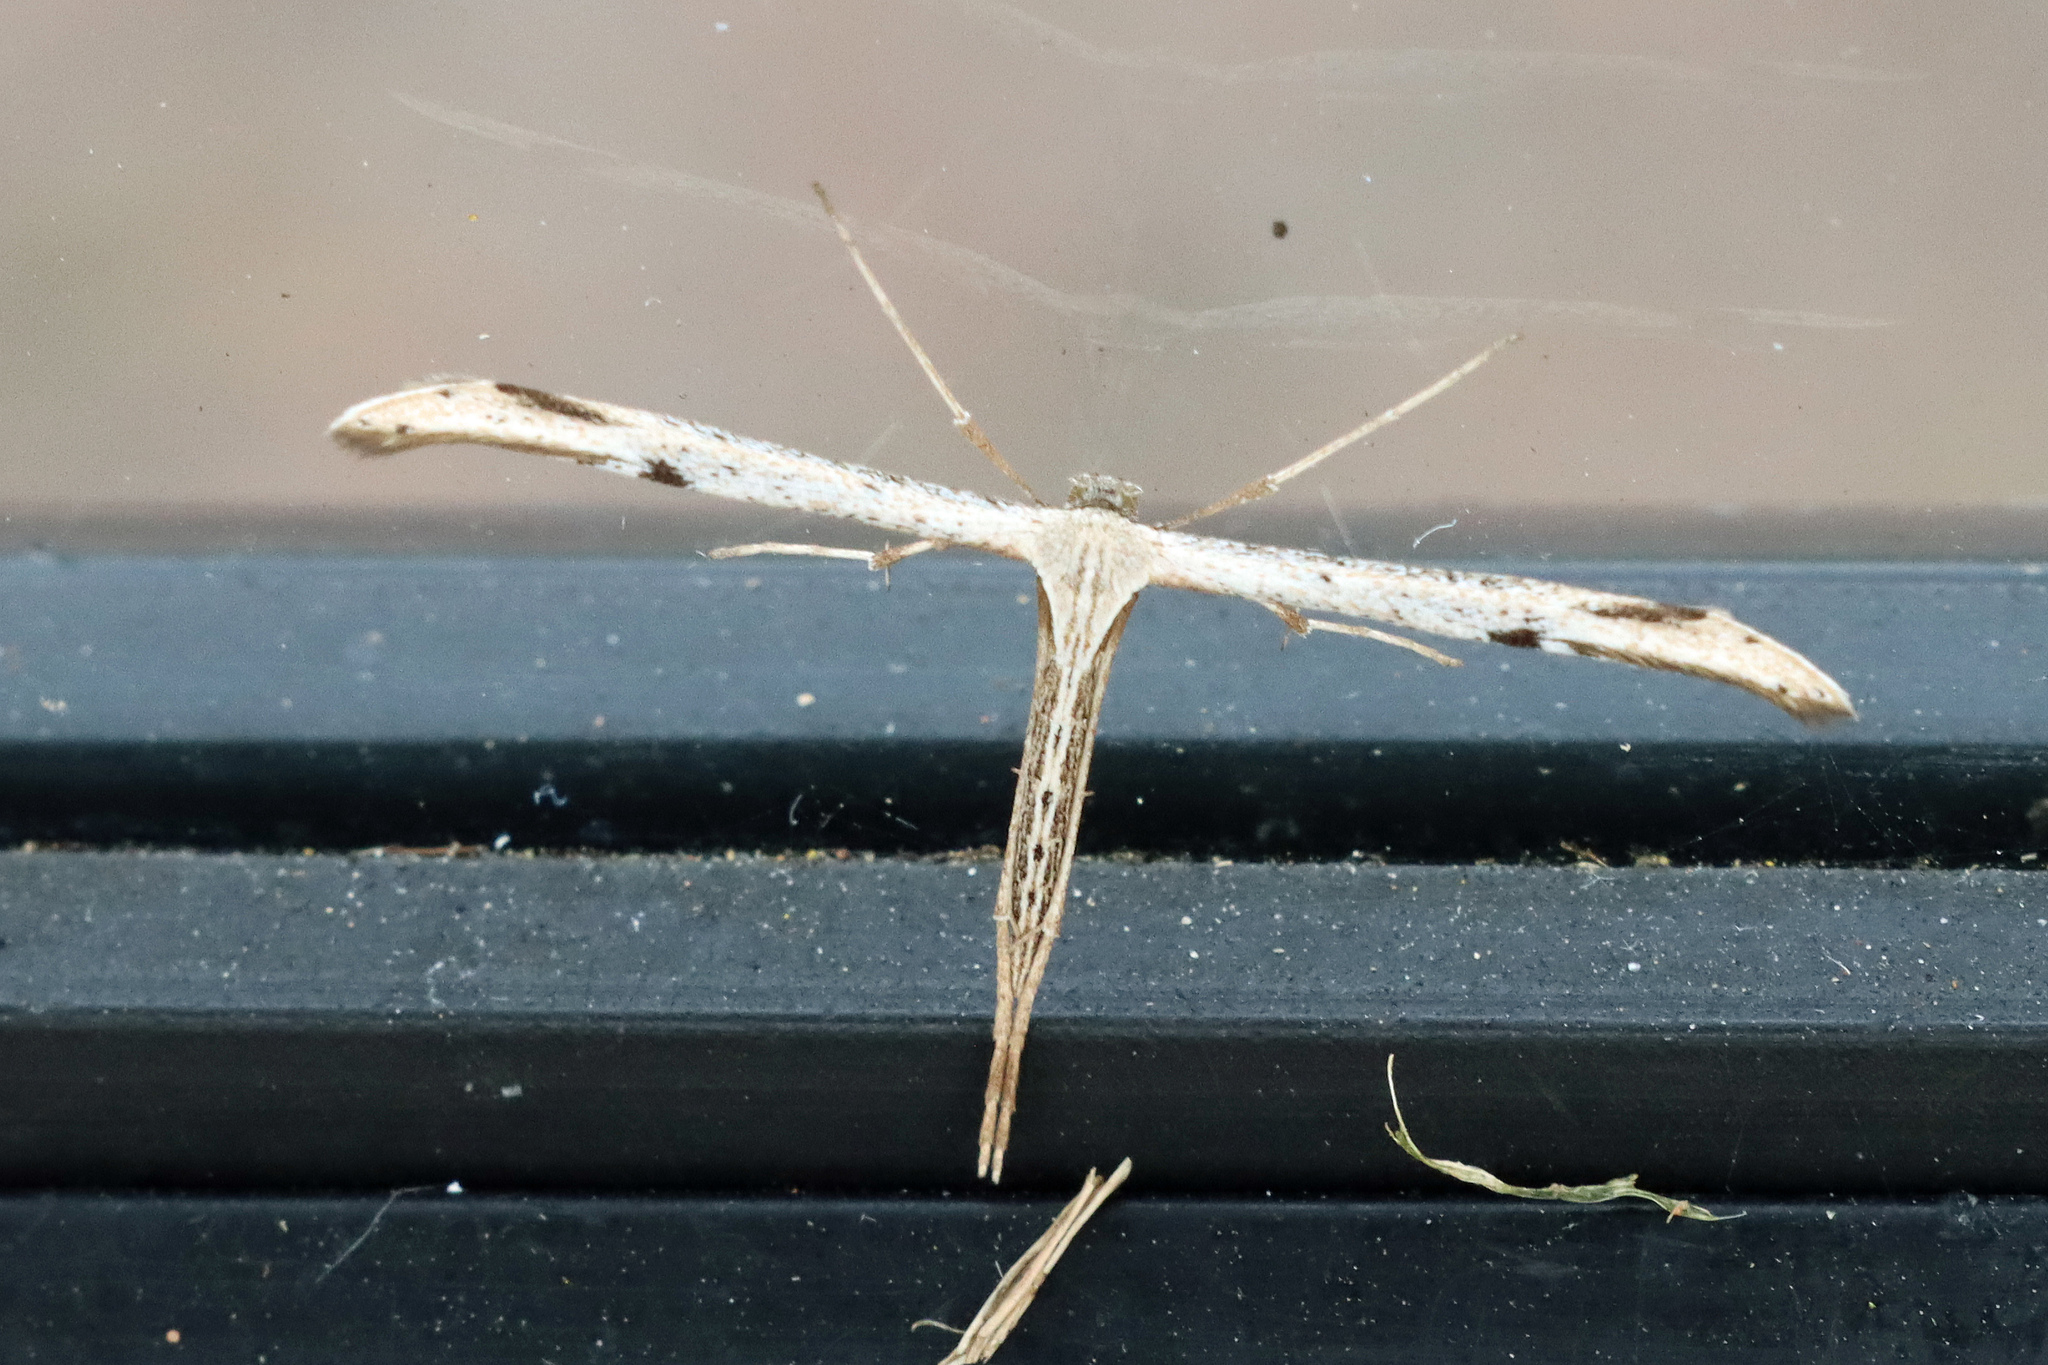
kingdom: Animalia
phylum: Arthropoda
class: Insecta
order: Lepidoptera
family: Pterophoridae
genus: Emmelina
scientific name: Emmelina monodactyla
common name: Common plume
